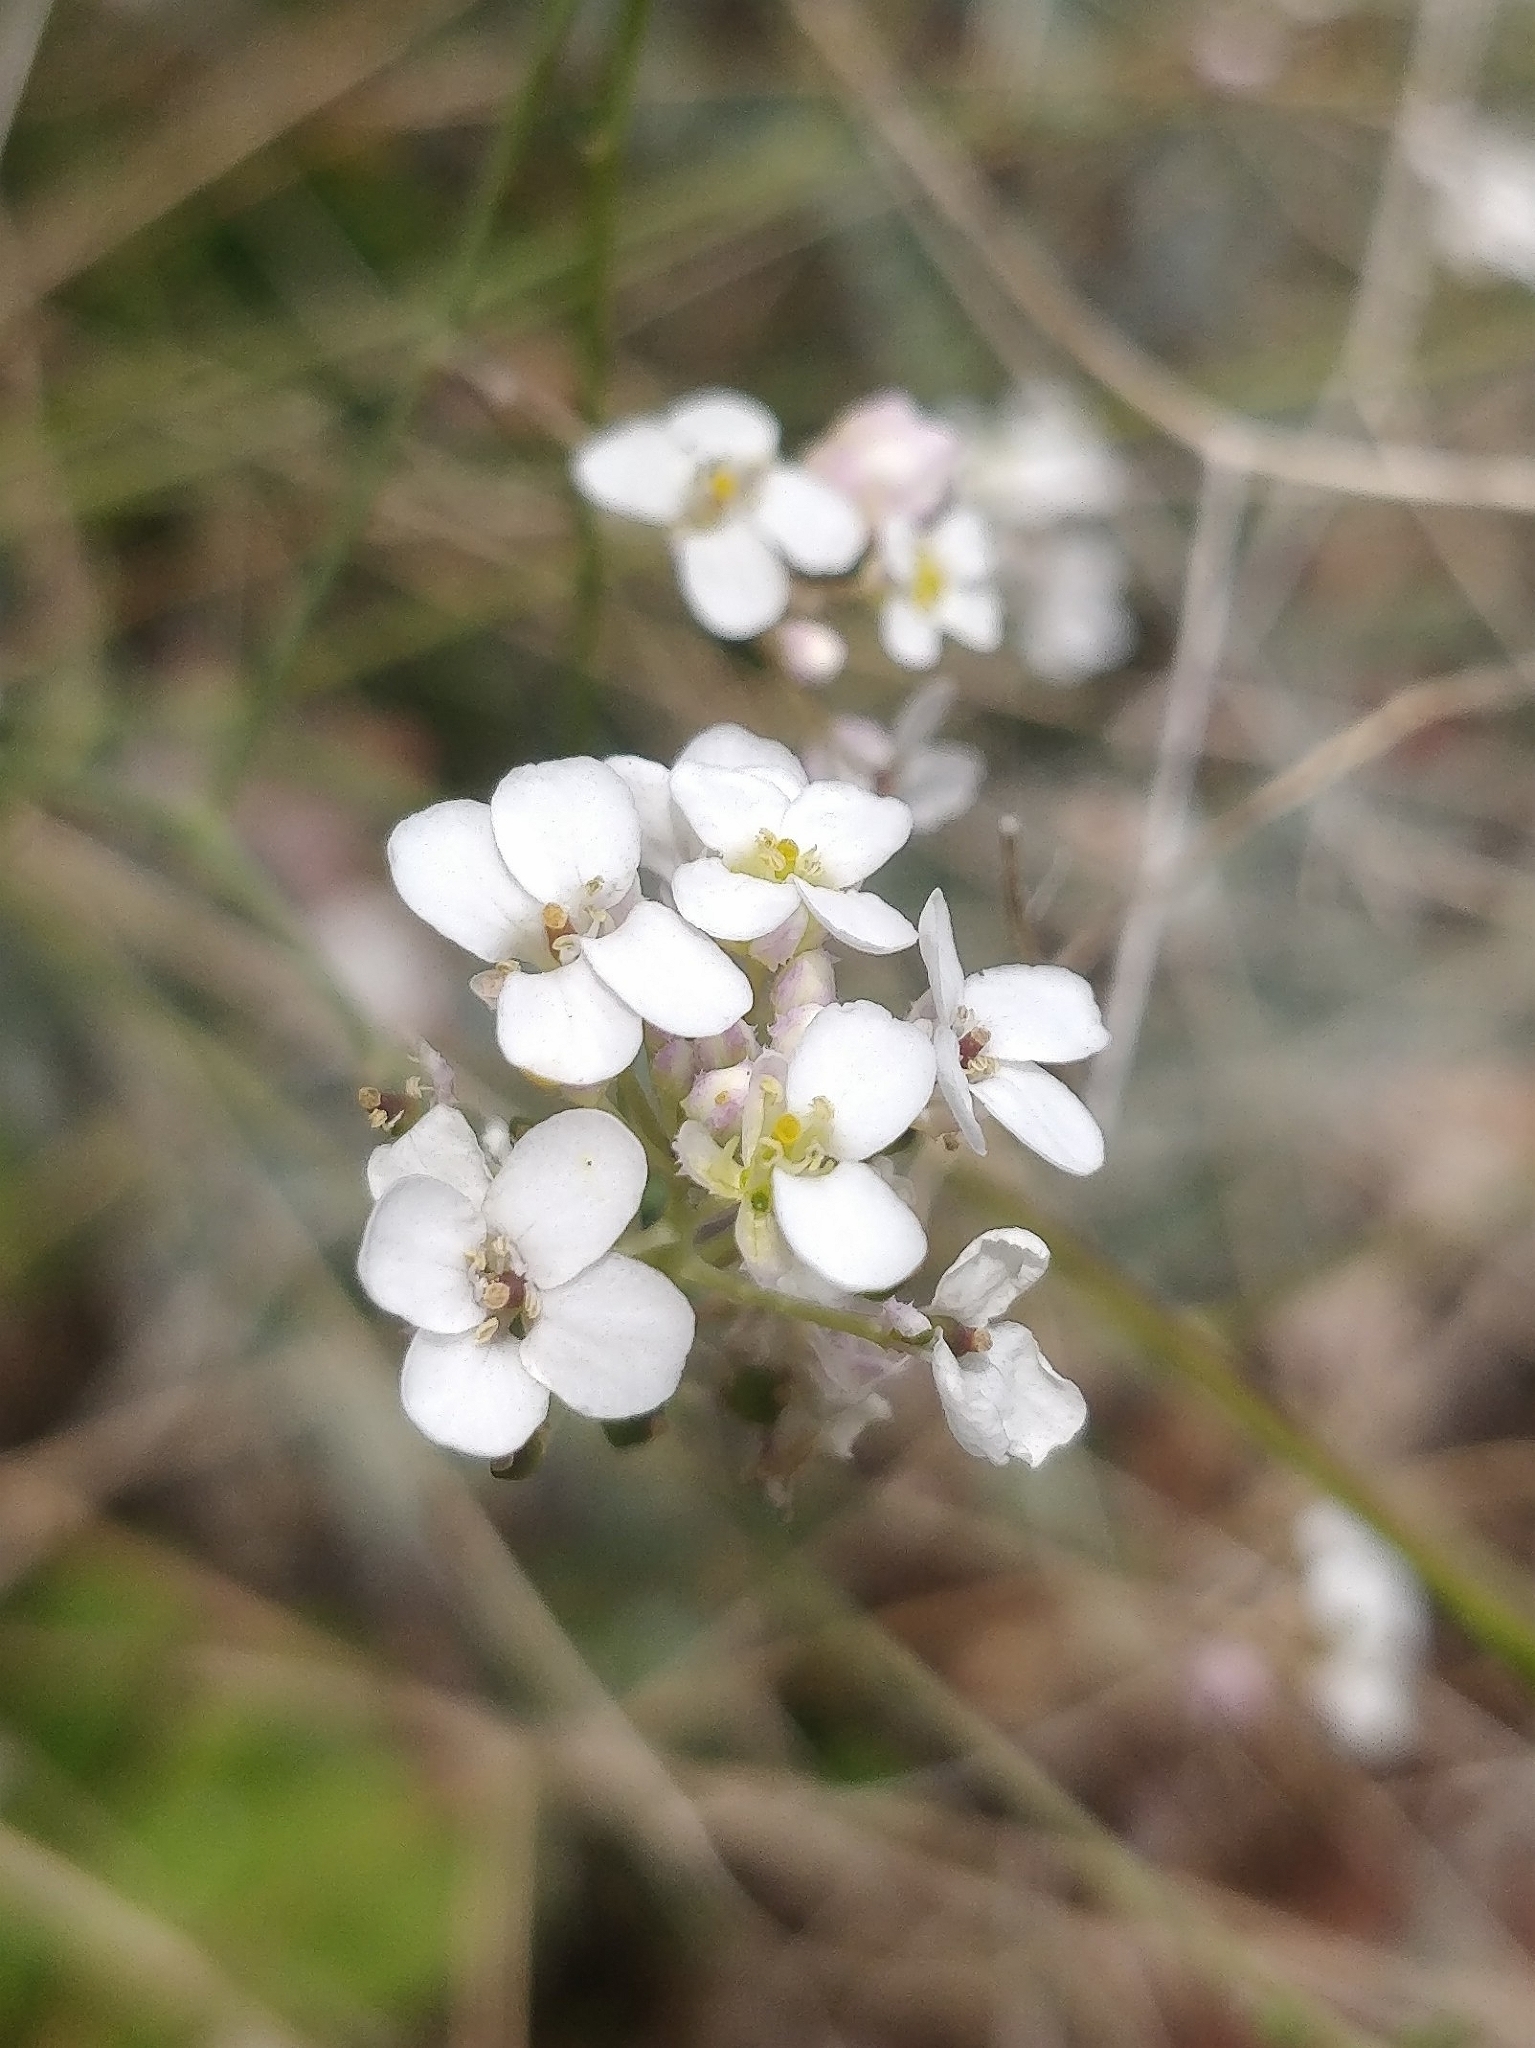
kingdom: Plantae
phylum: Tracheophyta
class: Magnoliopsida
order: Brassicales
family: Brassicaceae
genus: Crambe
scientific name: Crambe fruticosa
